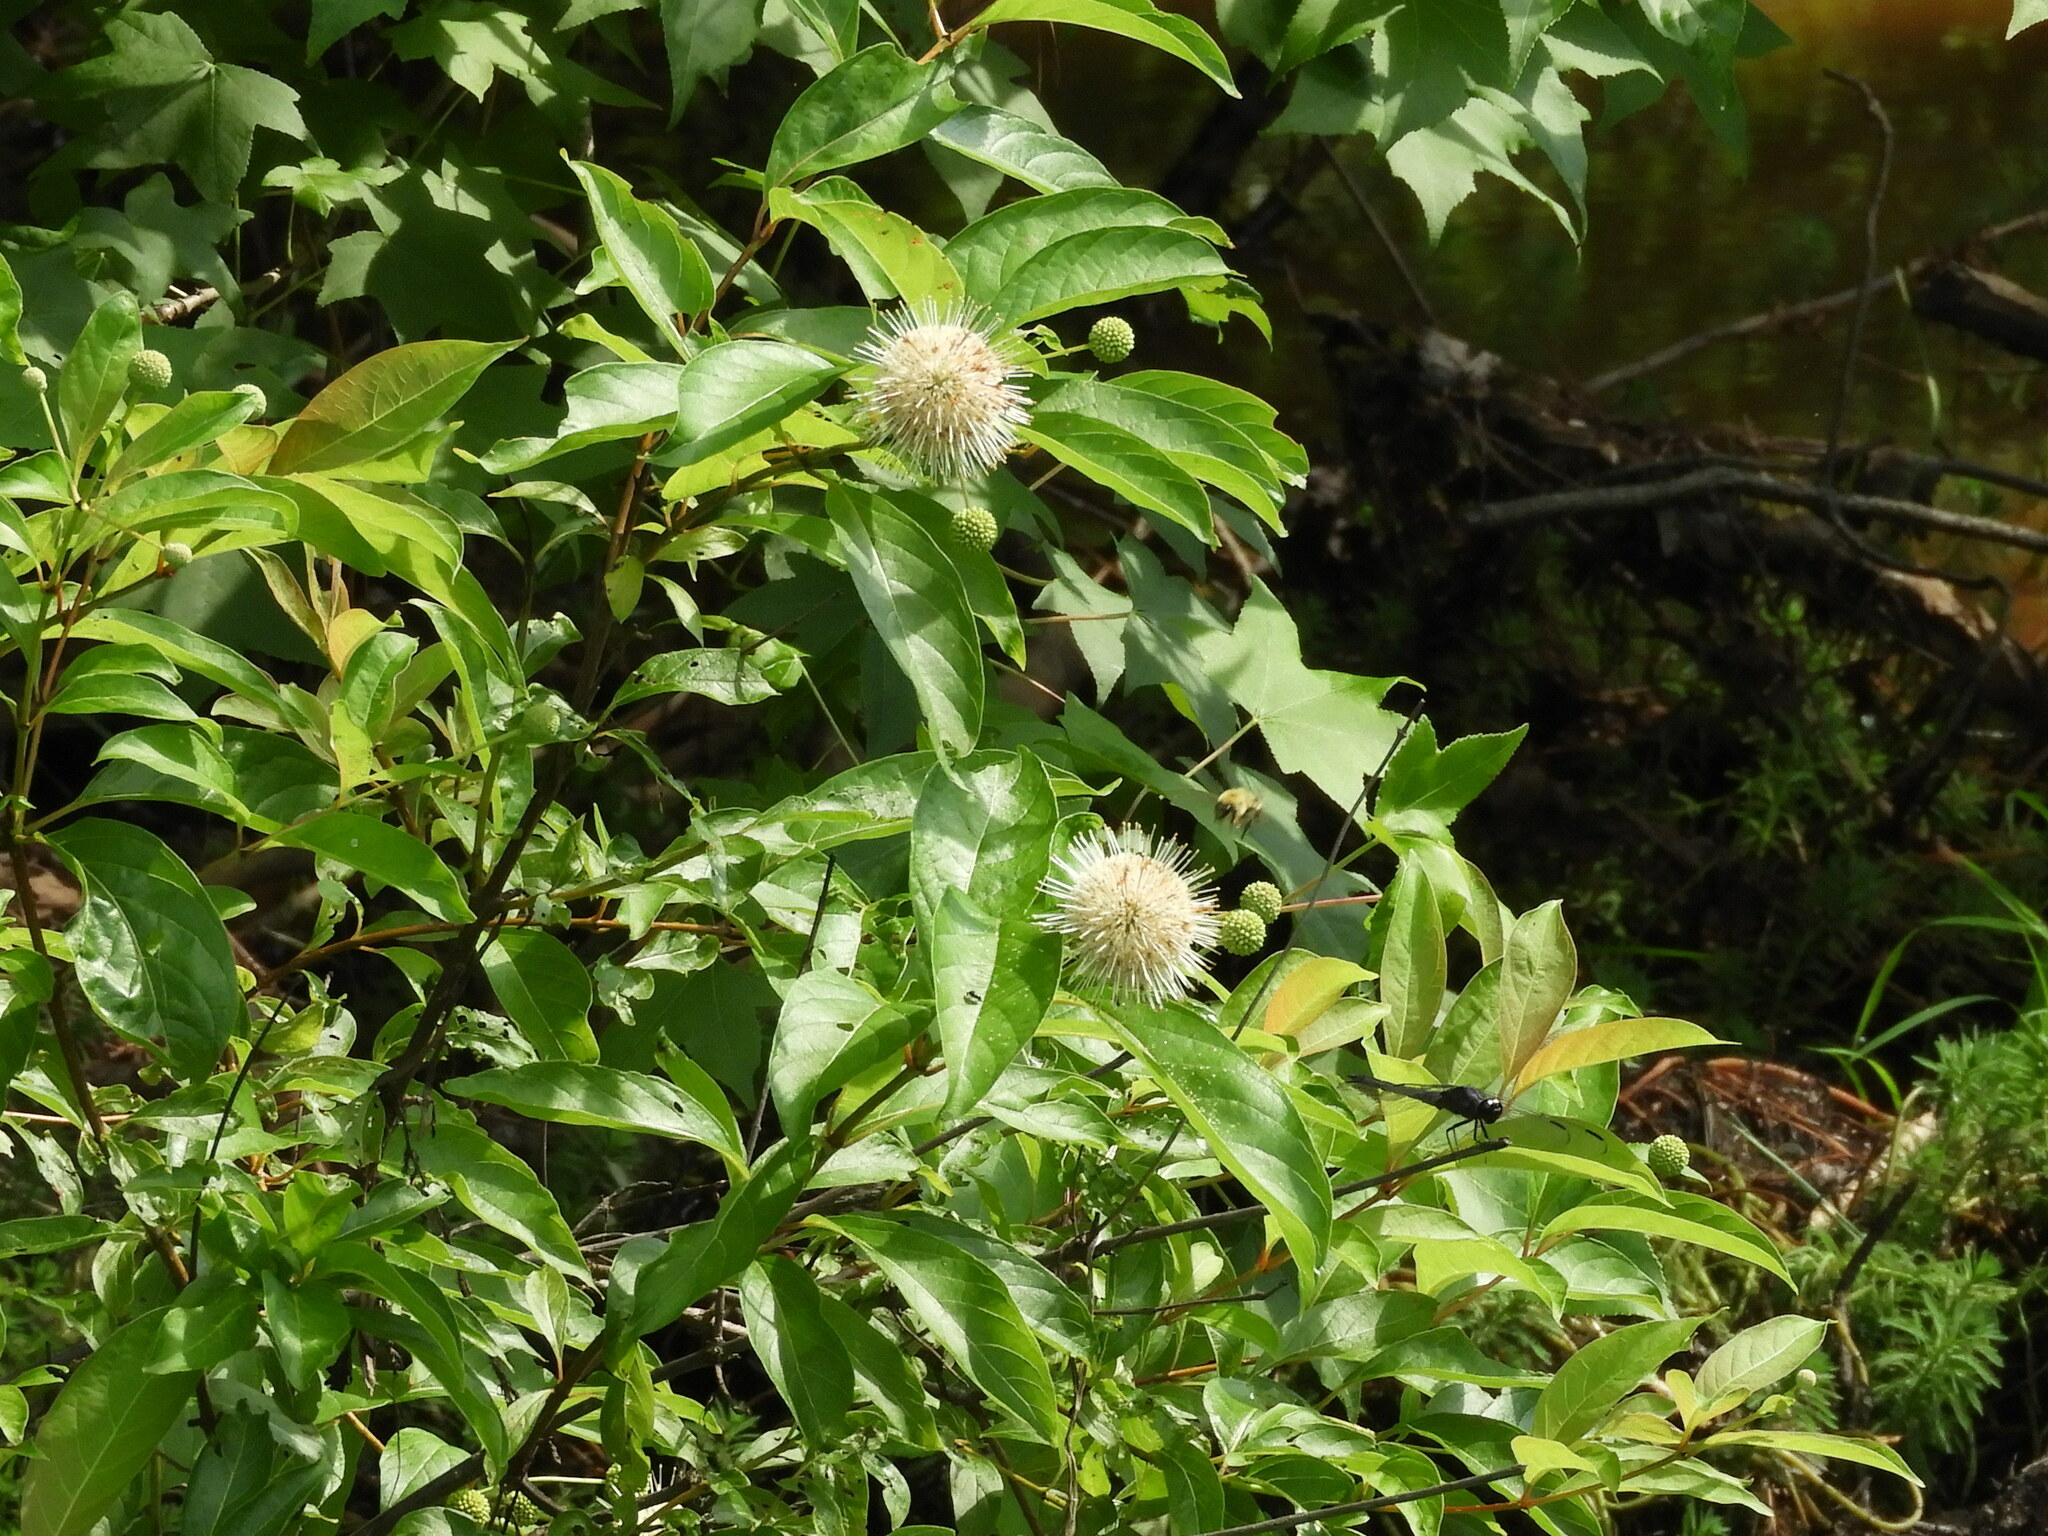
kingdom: Plantae
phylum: Tracheophyta
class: Magnoliopsida
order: Gentianales
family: Rubiaceae
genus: Cephalanthus
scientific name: Cephalanthus occidentalis
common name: Button-willow
